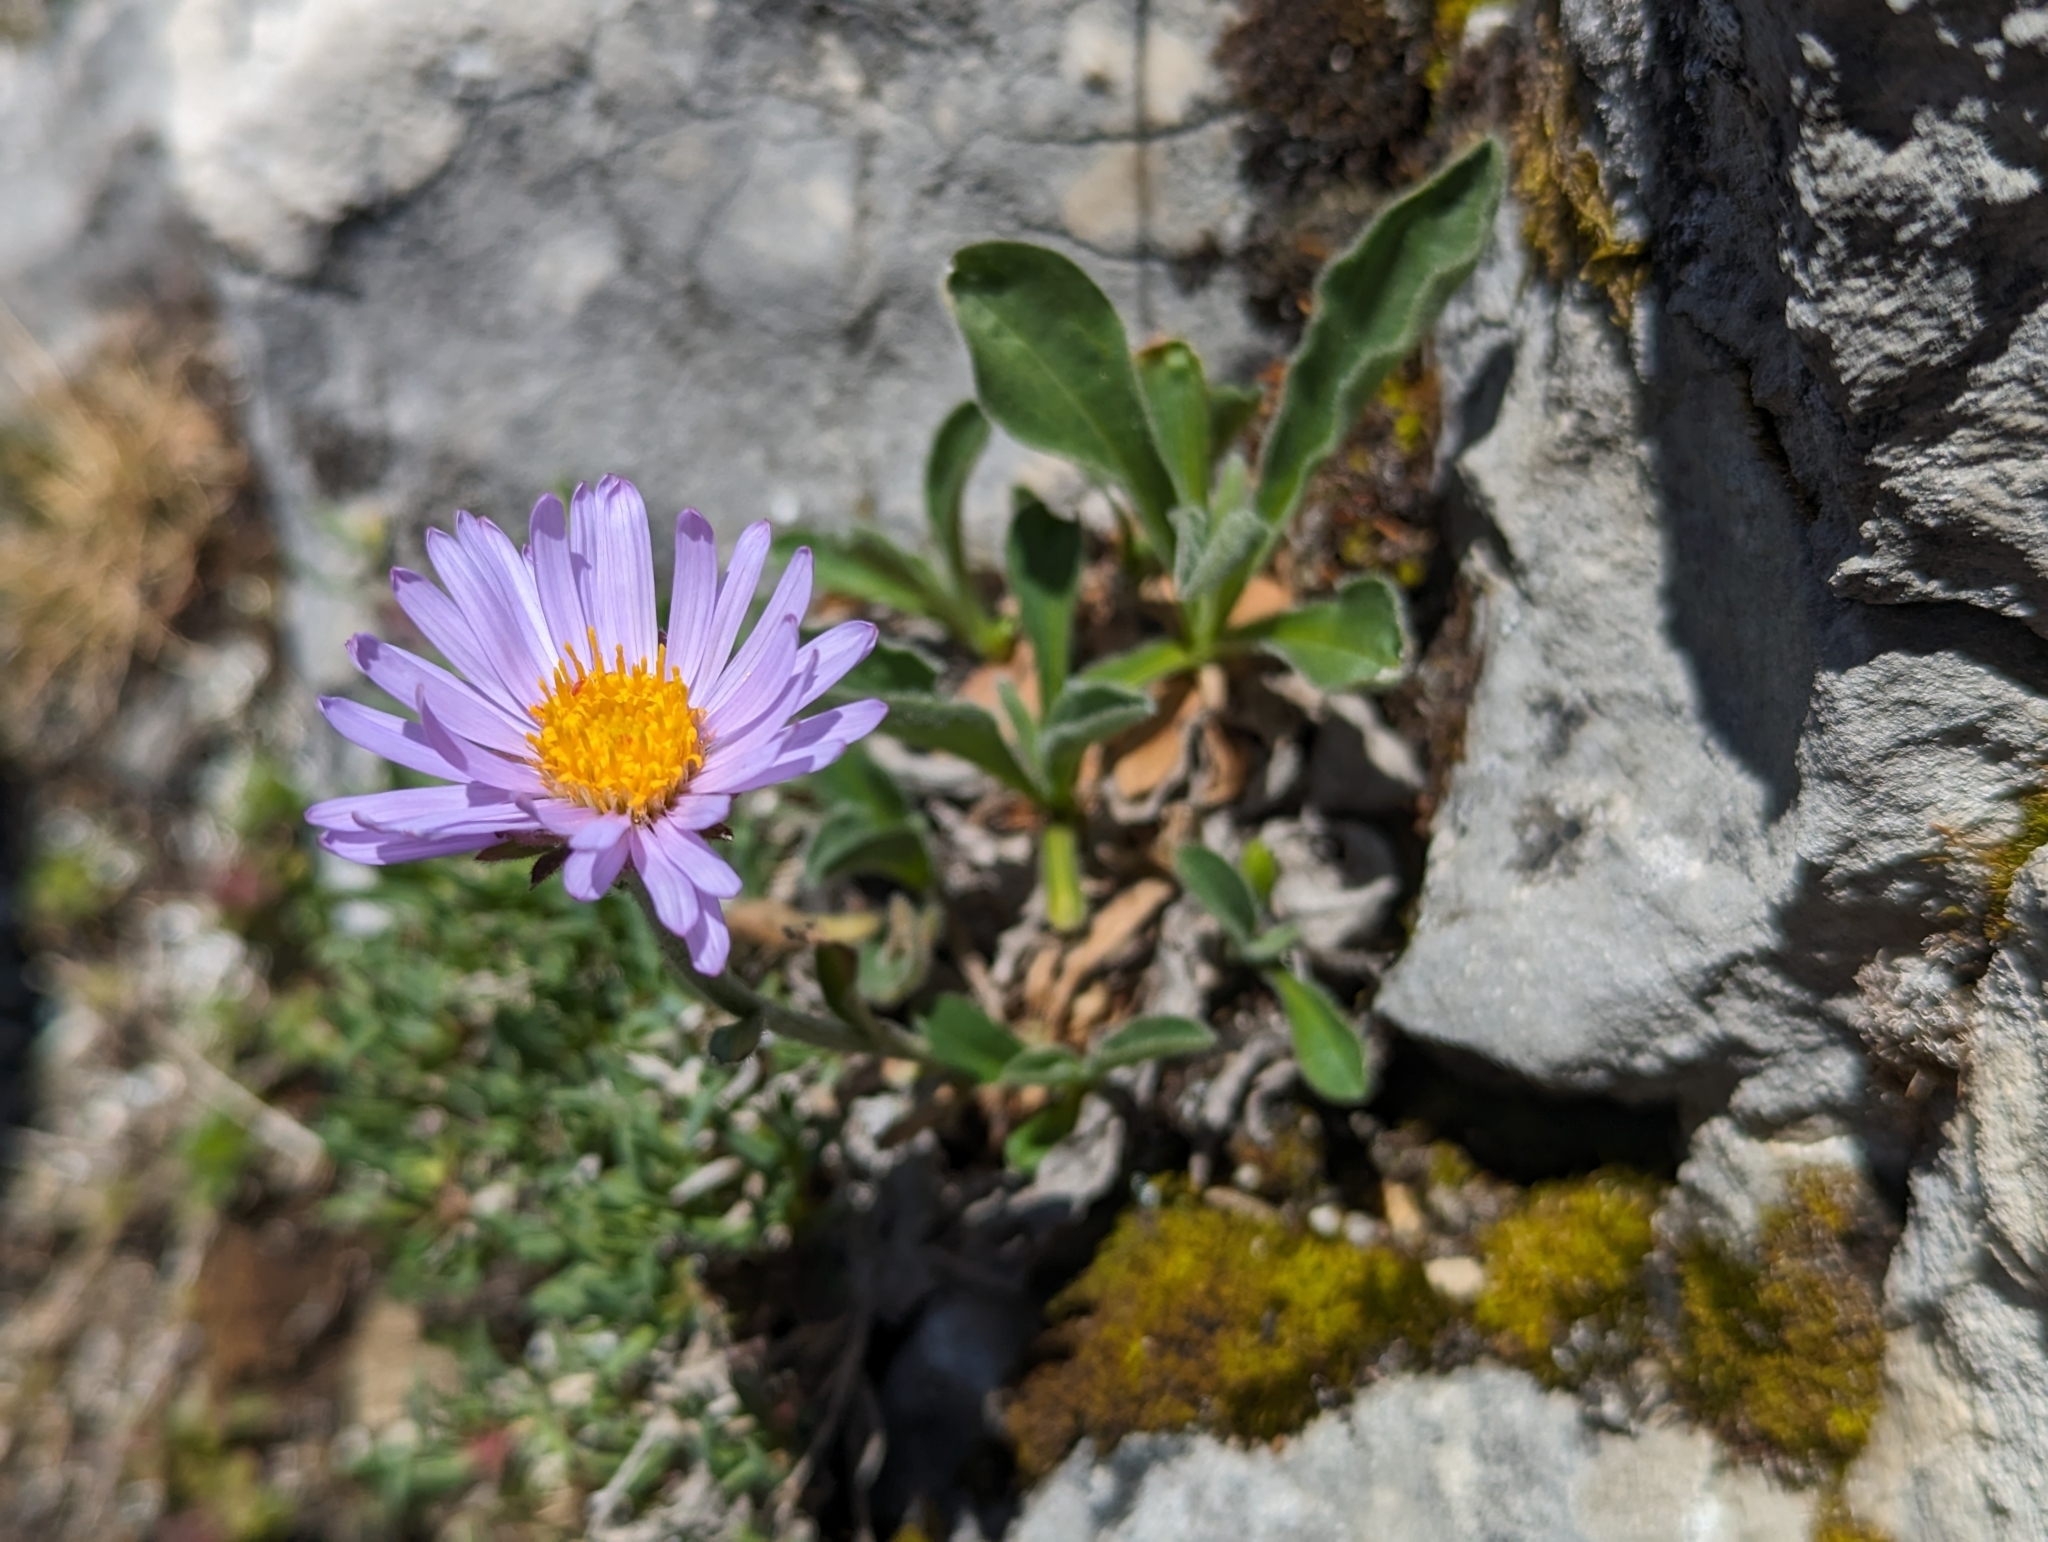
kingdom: Plantae
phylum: Tracheophyta
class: Magnoliopsida
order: Asterales
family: Asteraceae
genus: Aster
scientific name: Aster alpinus
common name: Alpine aster
